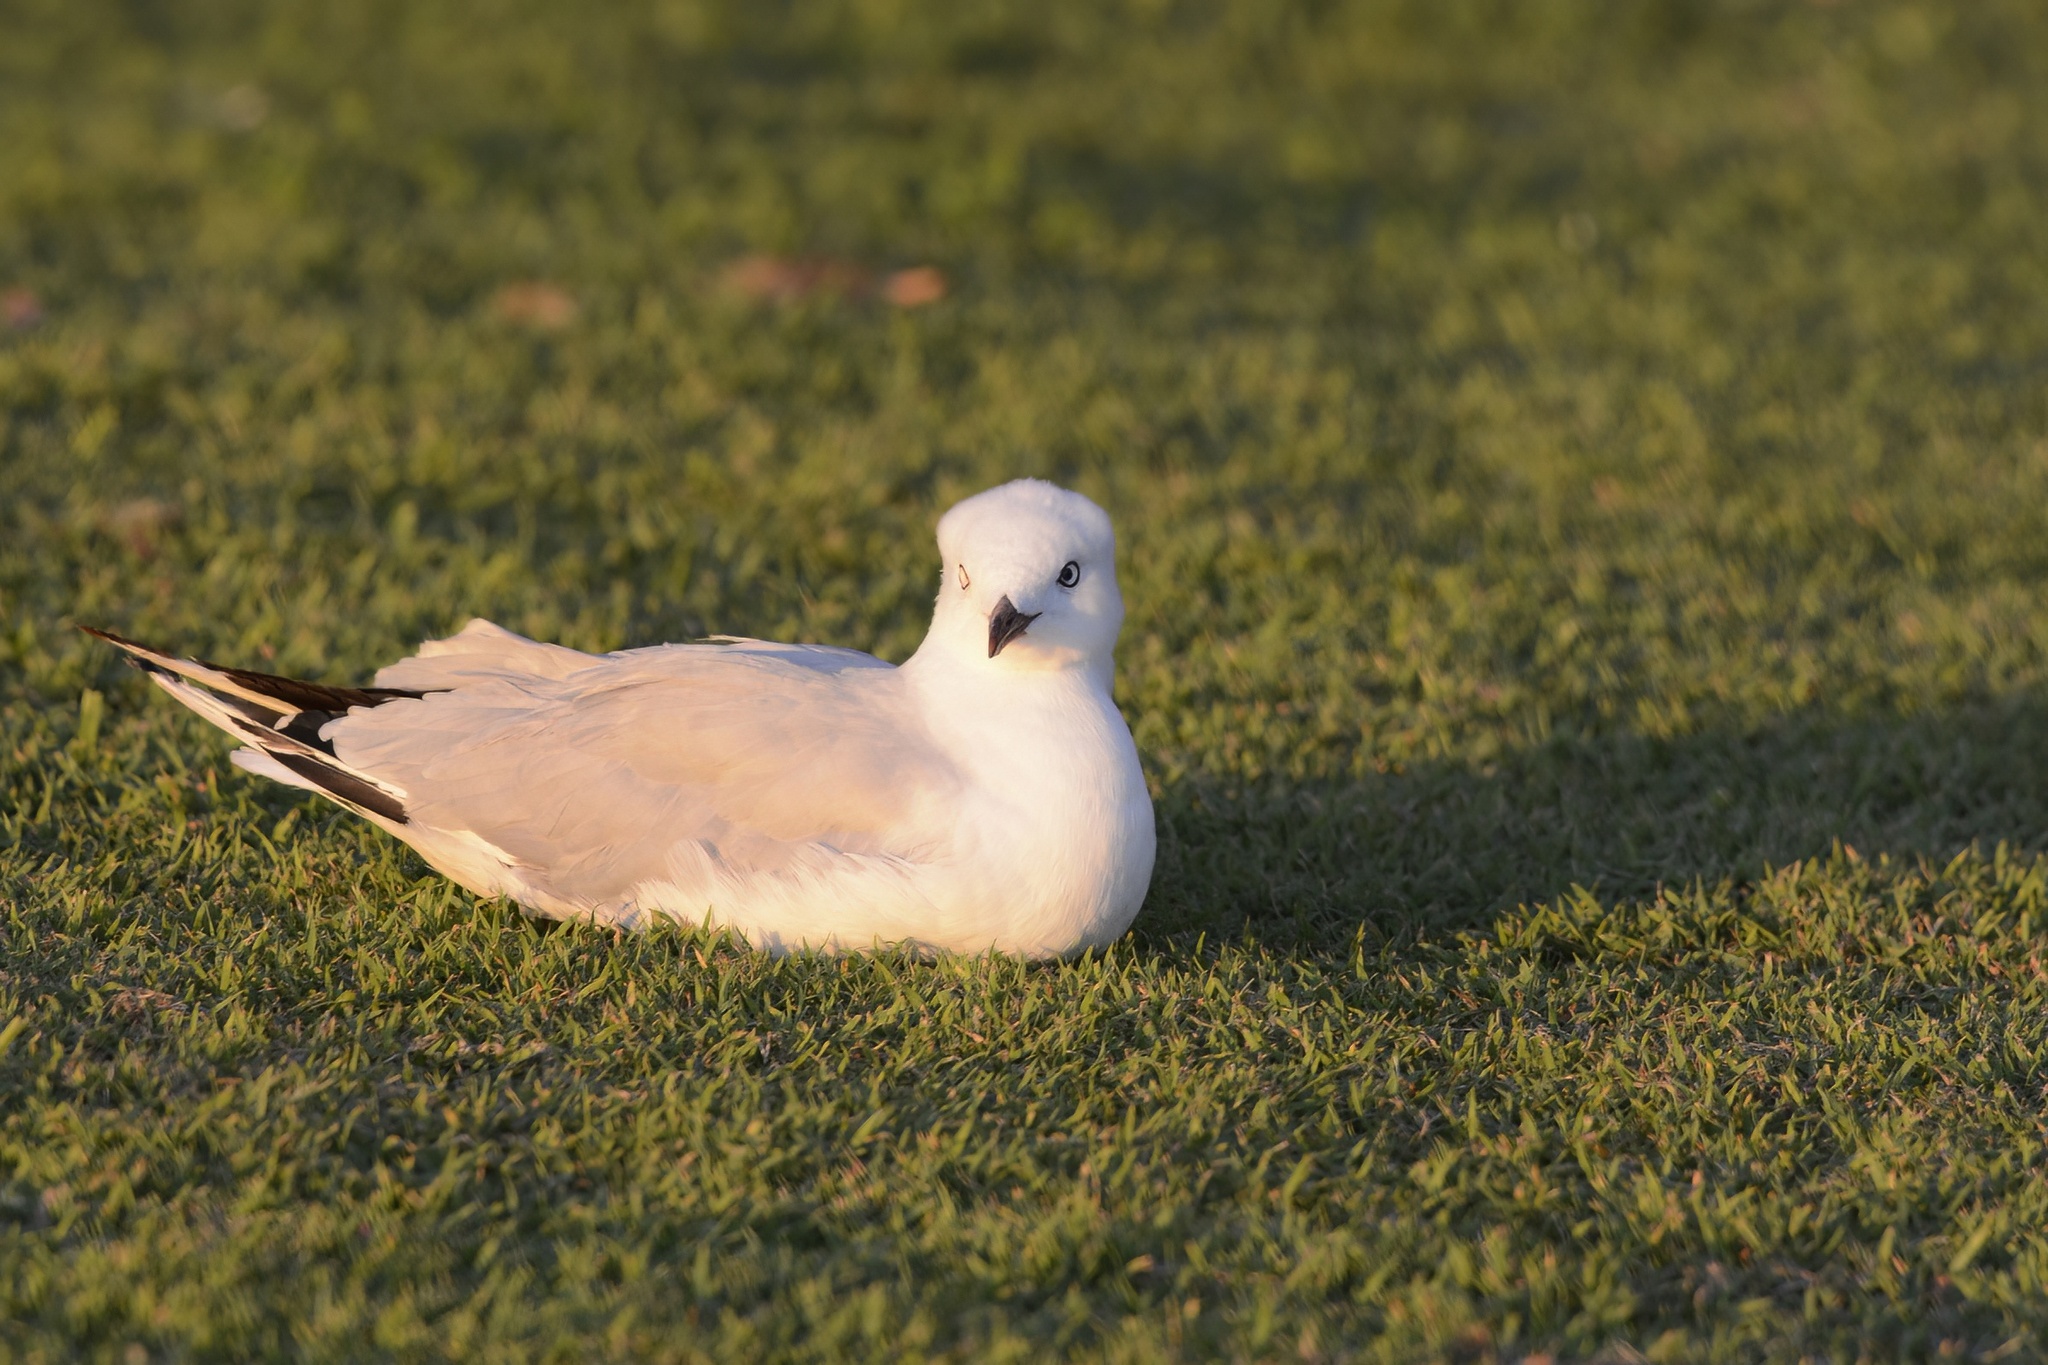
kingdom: Animalia
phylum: Chordata
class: Aves
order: Charadriiformes
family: Laridae
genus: Chroicocephalus
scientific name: Chroicocephalus novaehollandiae
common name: Silver gull
